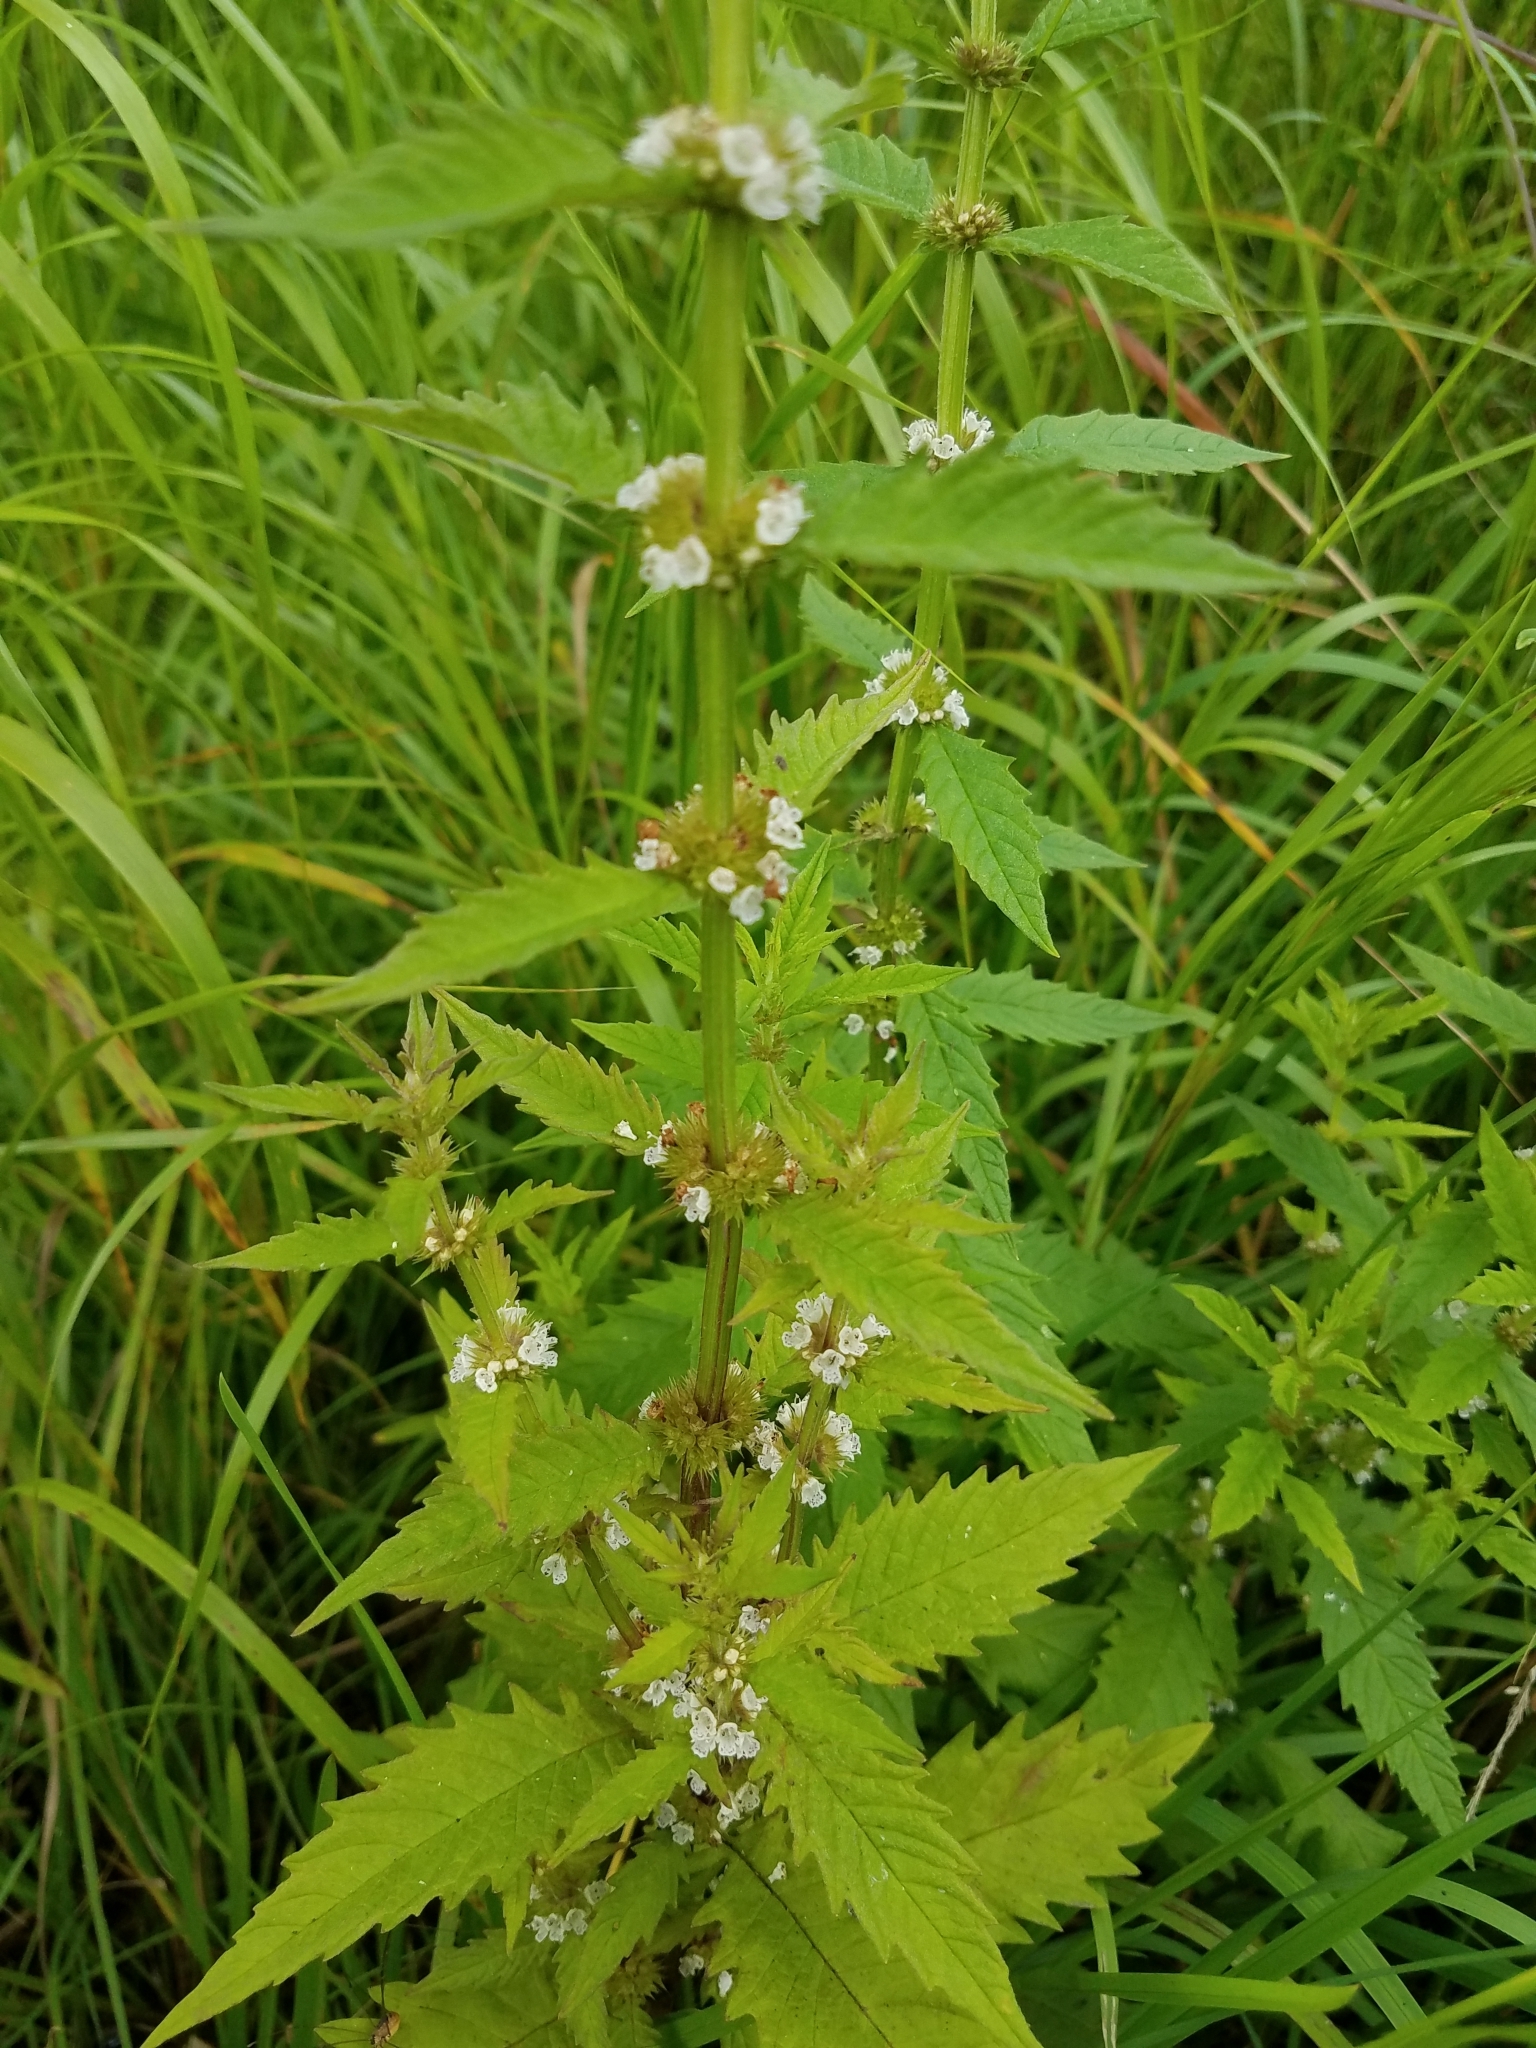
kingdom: Plantae
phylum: Tracheophyta
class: Magnoliopsida
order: Lamiales
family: Lamiaceae
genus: Lycopus
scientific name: Lycopus europaeus
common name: European bugleweed
